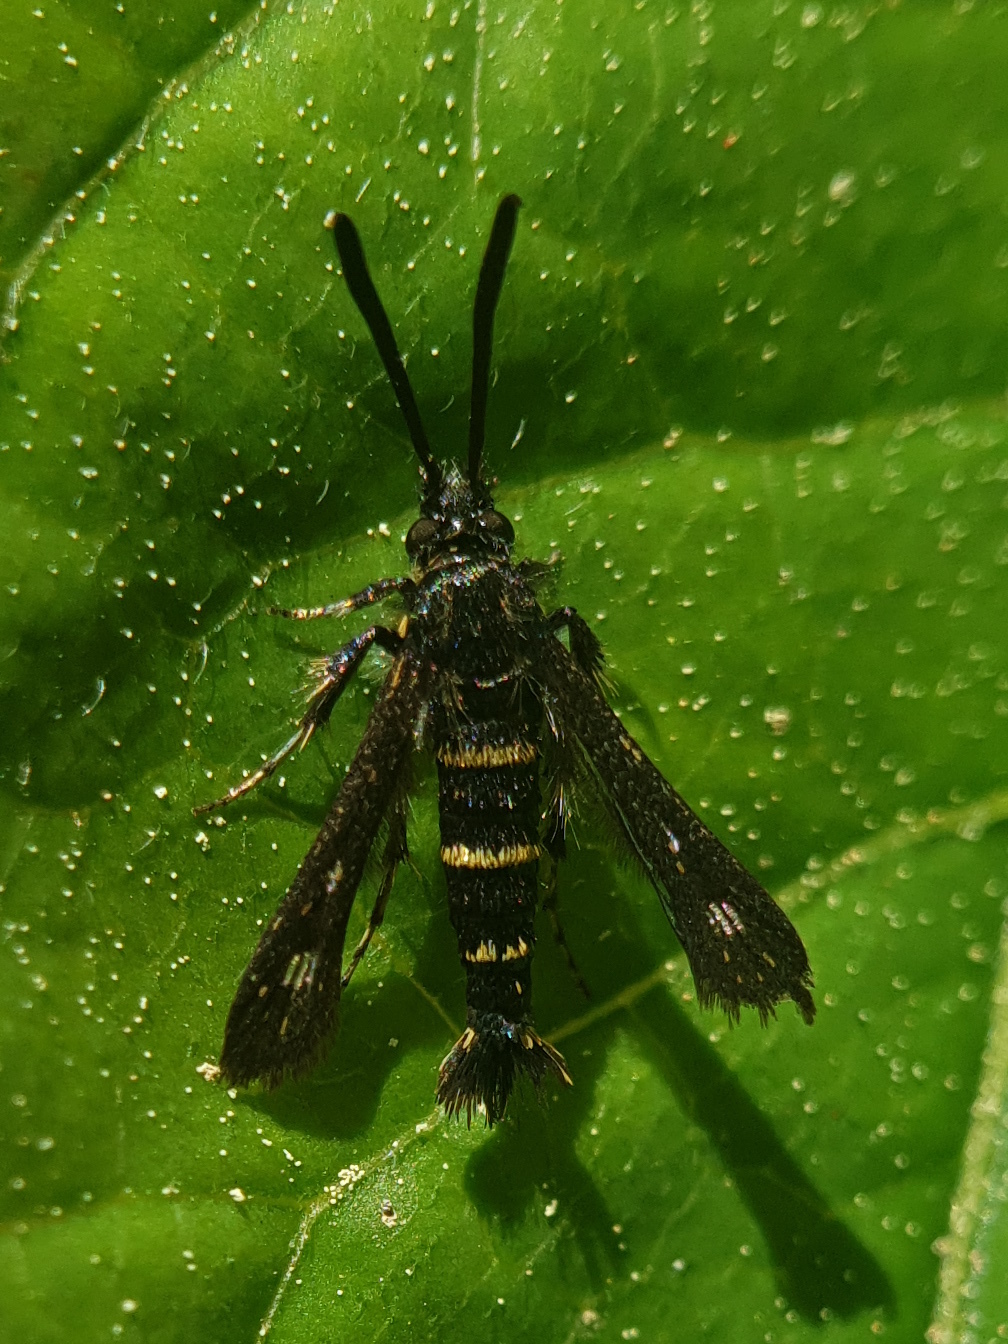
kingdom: Animalia
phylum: Arthropoda
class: Insecta
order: Lepidoptera
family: Sesiidae
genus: Sazonia
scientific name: Sazonia fenusaeformis
